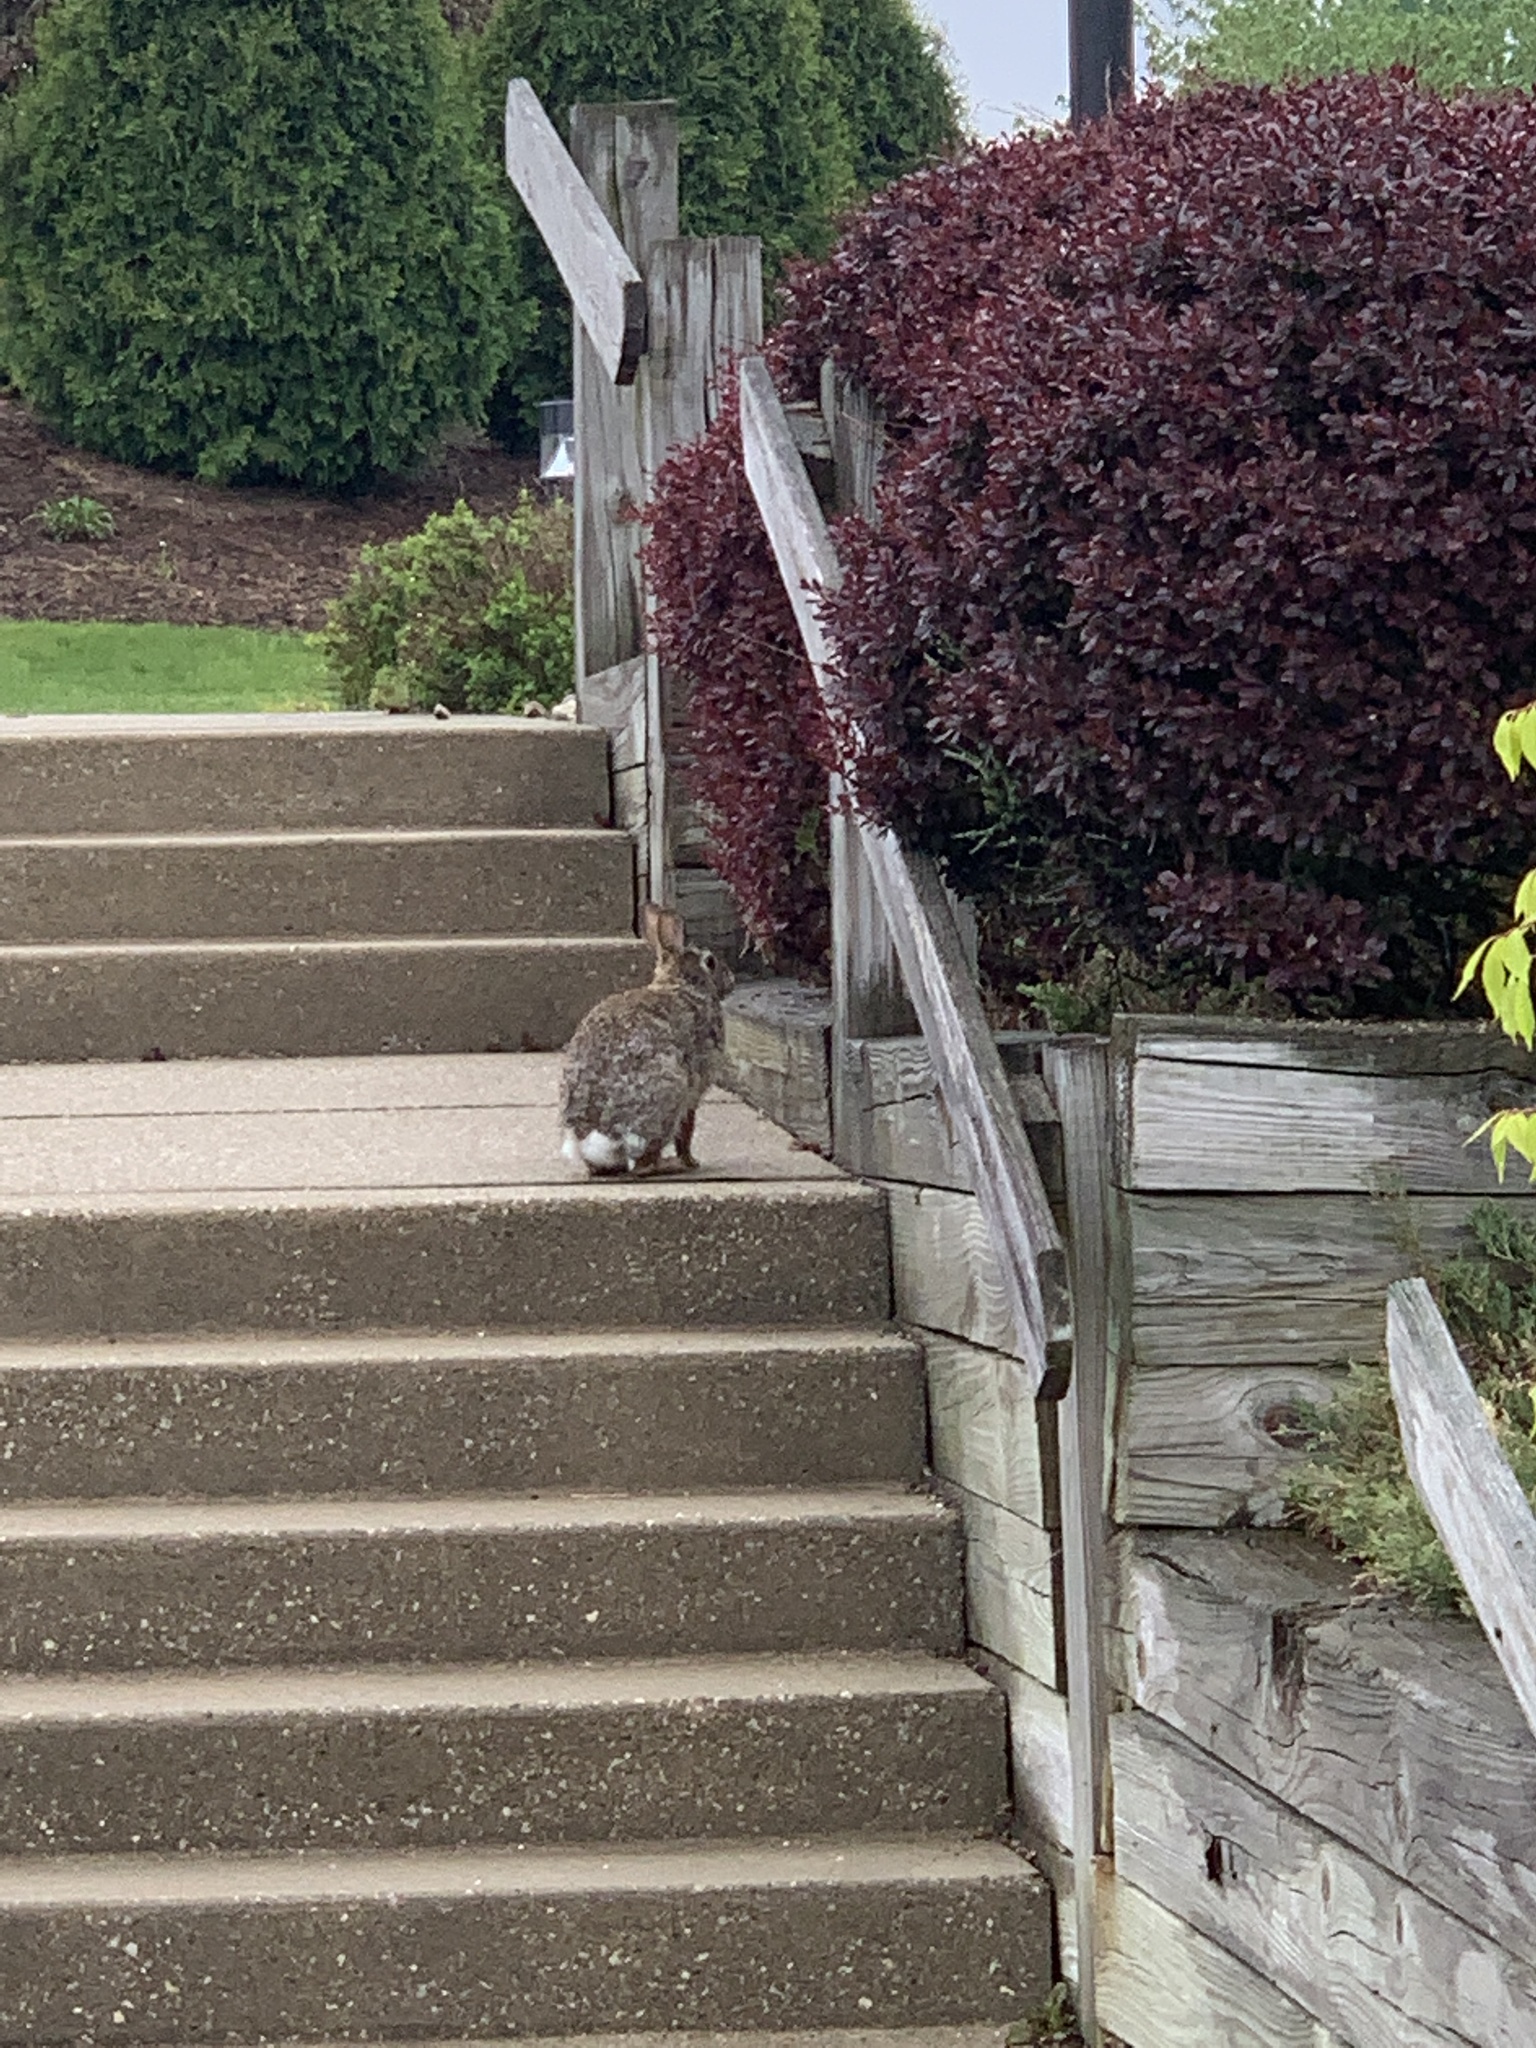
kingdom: Animalia
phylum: Chordata
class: Mammalia
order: Lagomorpha
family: Leporidae
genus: Sylvilagus
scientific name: Sylvilagus floridanus
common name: Eastern cottontail
